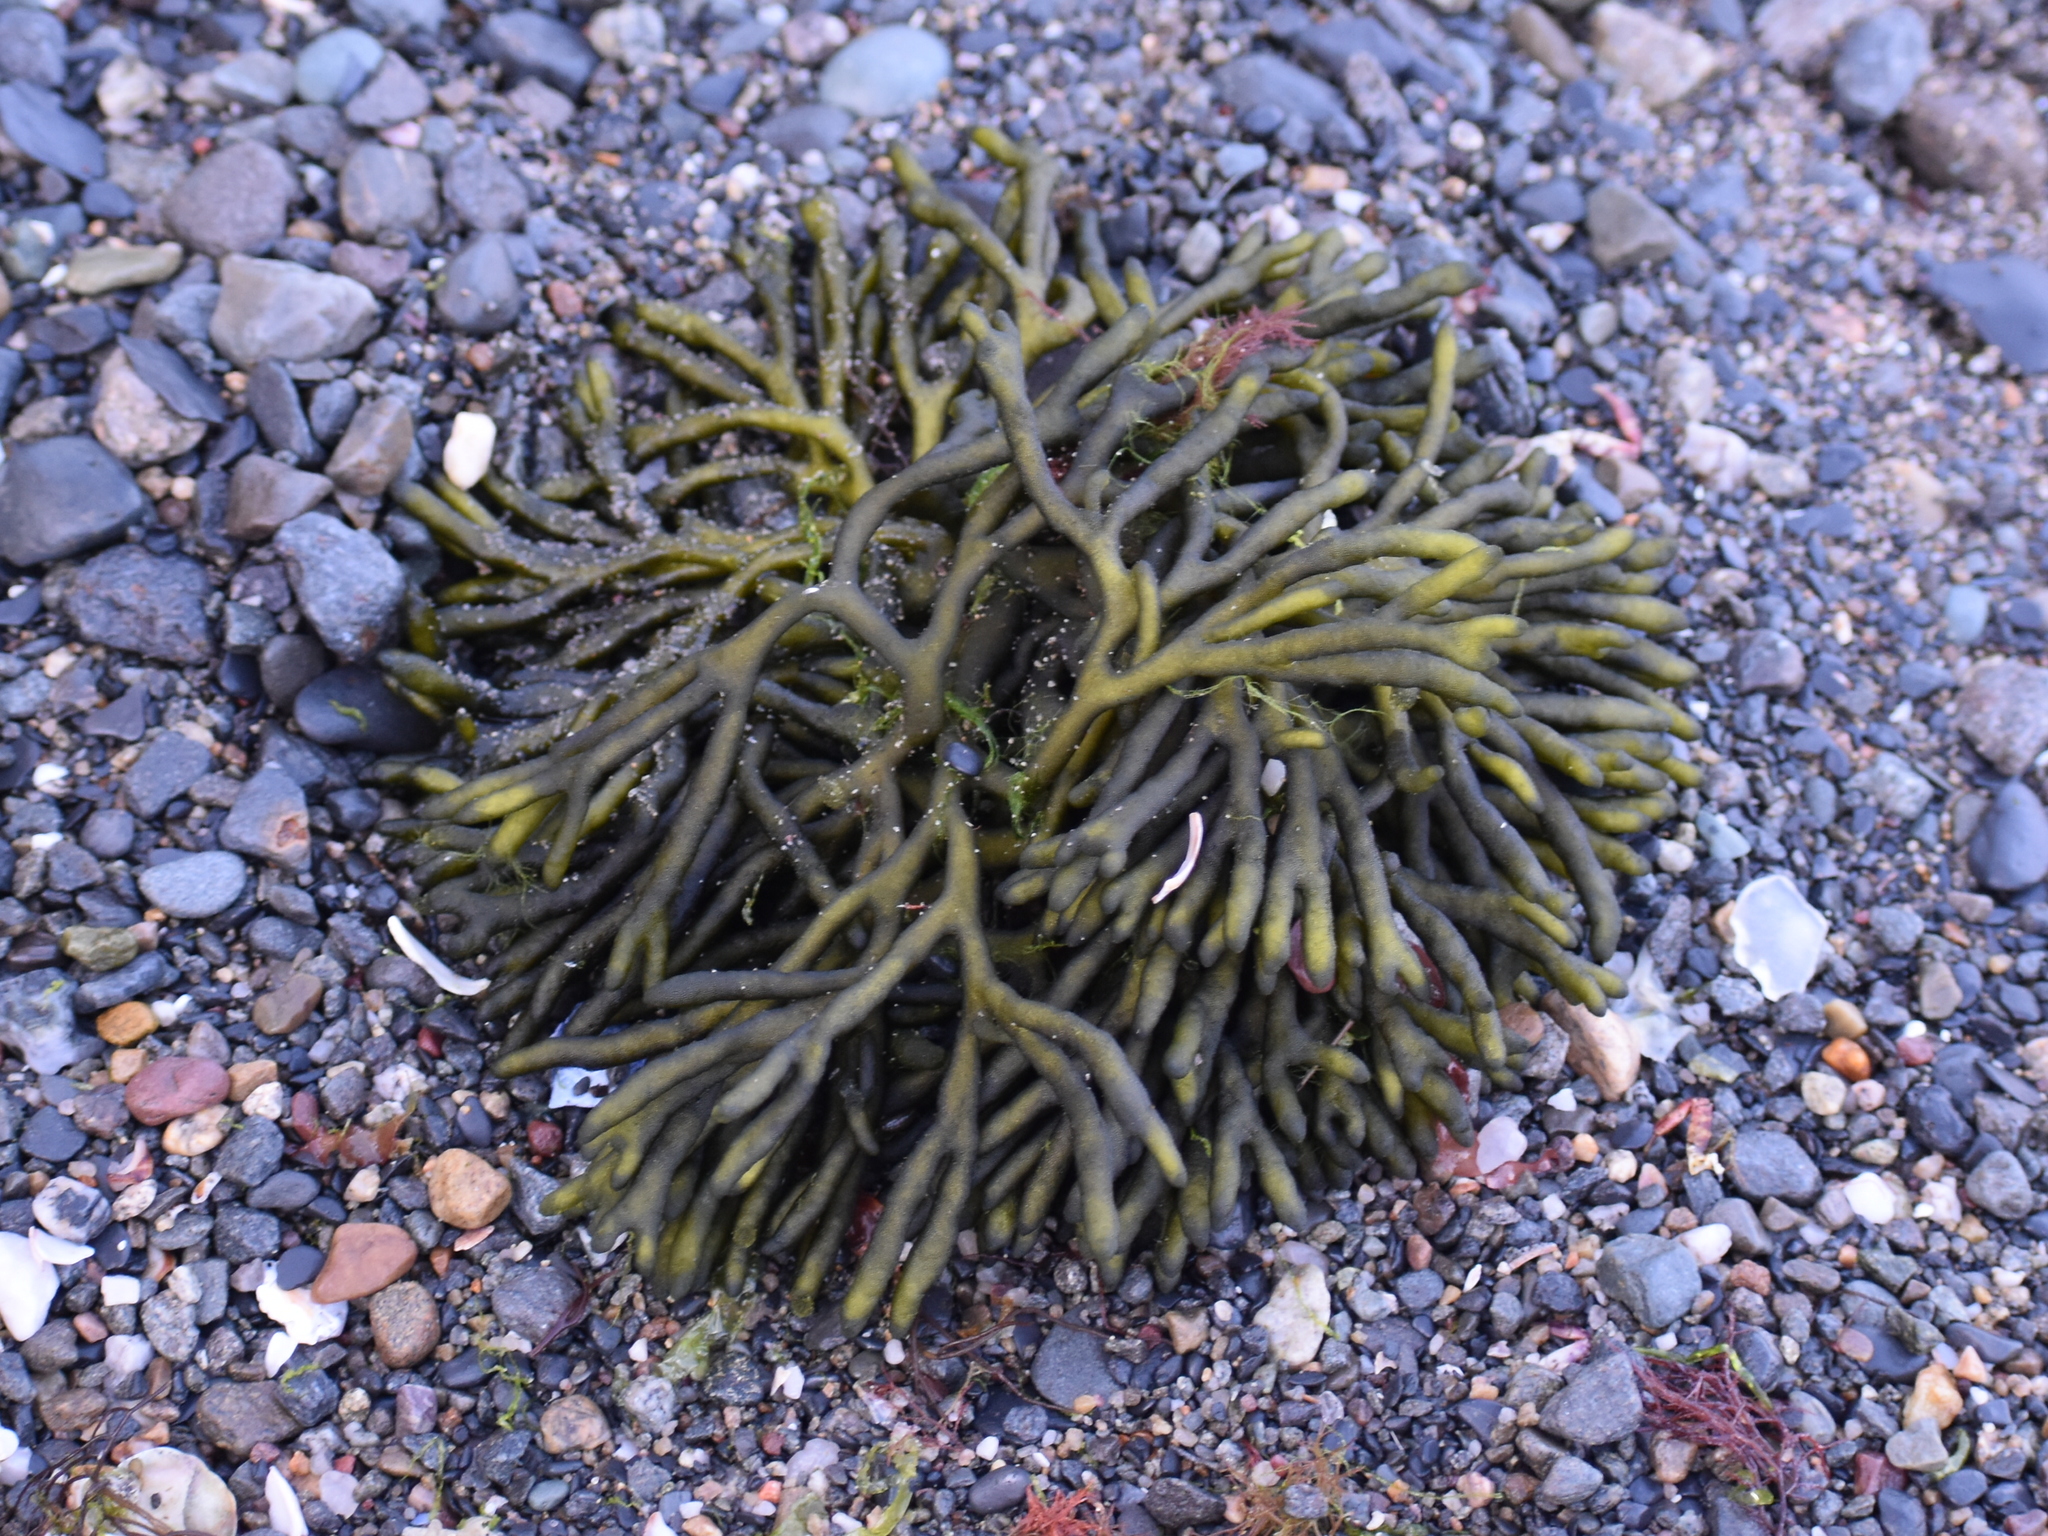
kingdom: Plantae
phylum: Chlorophyta
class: Ulvophyceae
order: Bryopsidales
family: Codiaceae
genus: Codium
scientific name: Codium fragile
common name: Dead man's fingers
